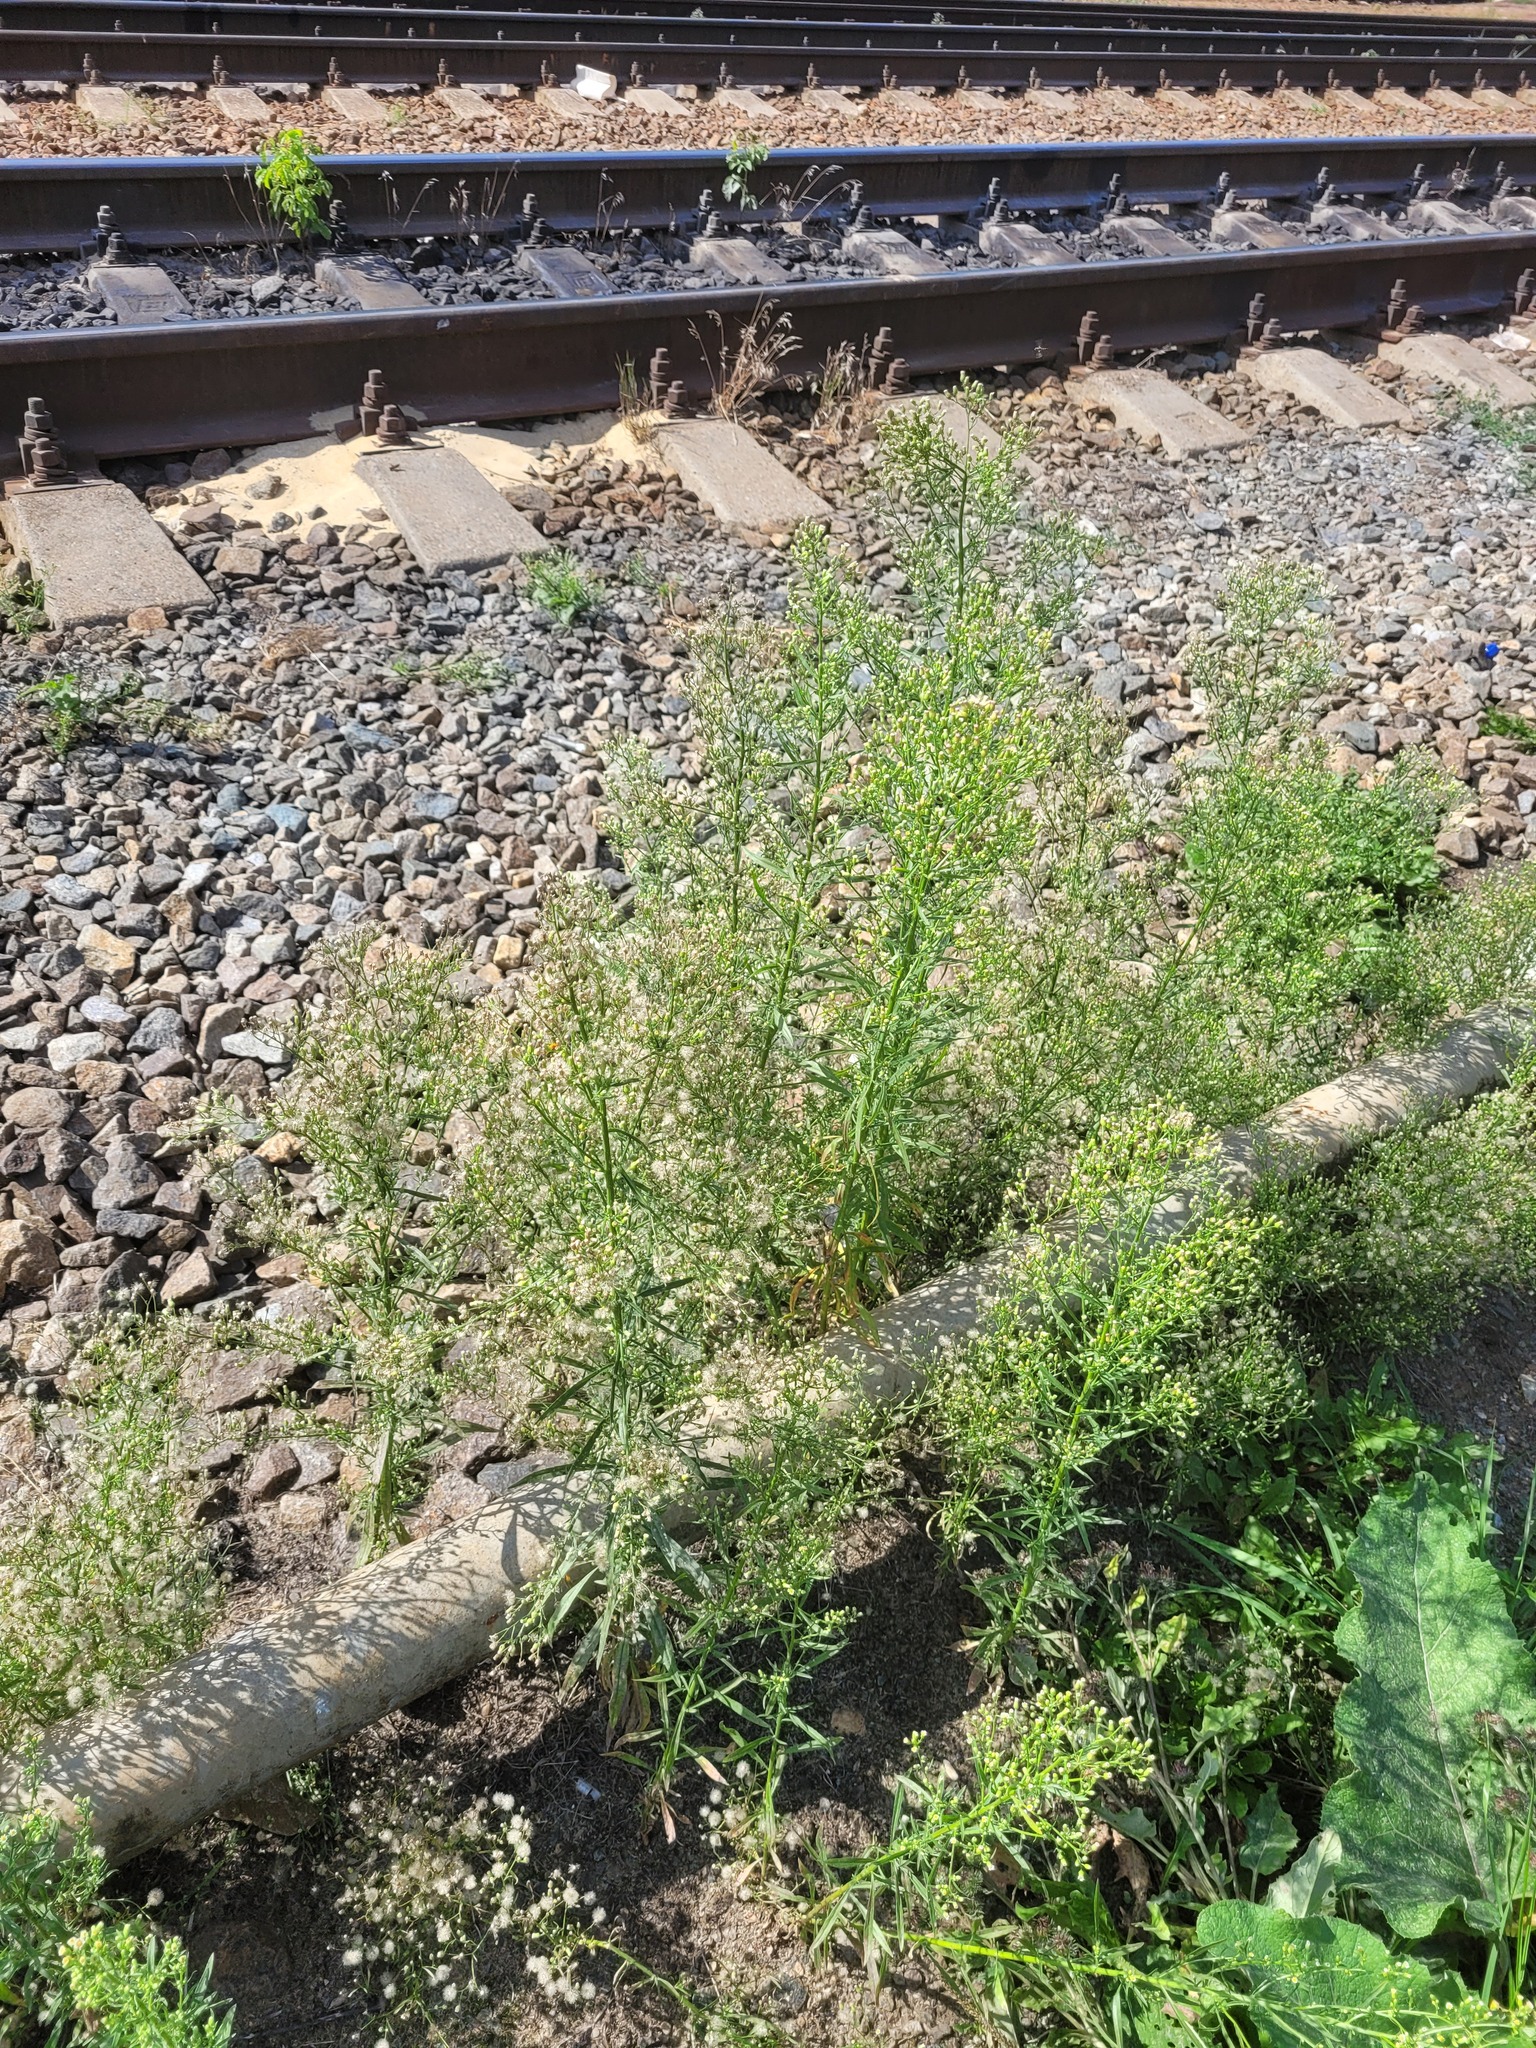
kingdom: Plantae
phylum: Tracheophyta
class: Magnoliopsida
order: Asterales
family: Asteraceae
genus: Erigeron
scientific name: Erigeron canadensis
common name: Canadian fleabane
